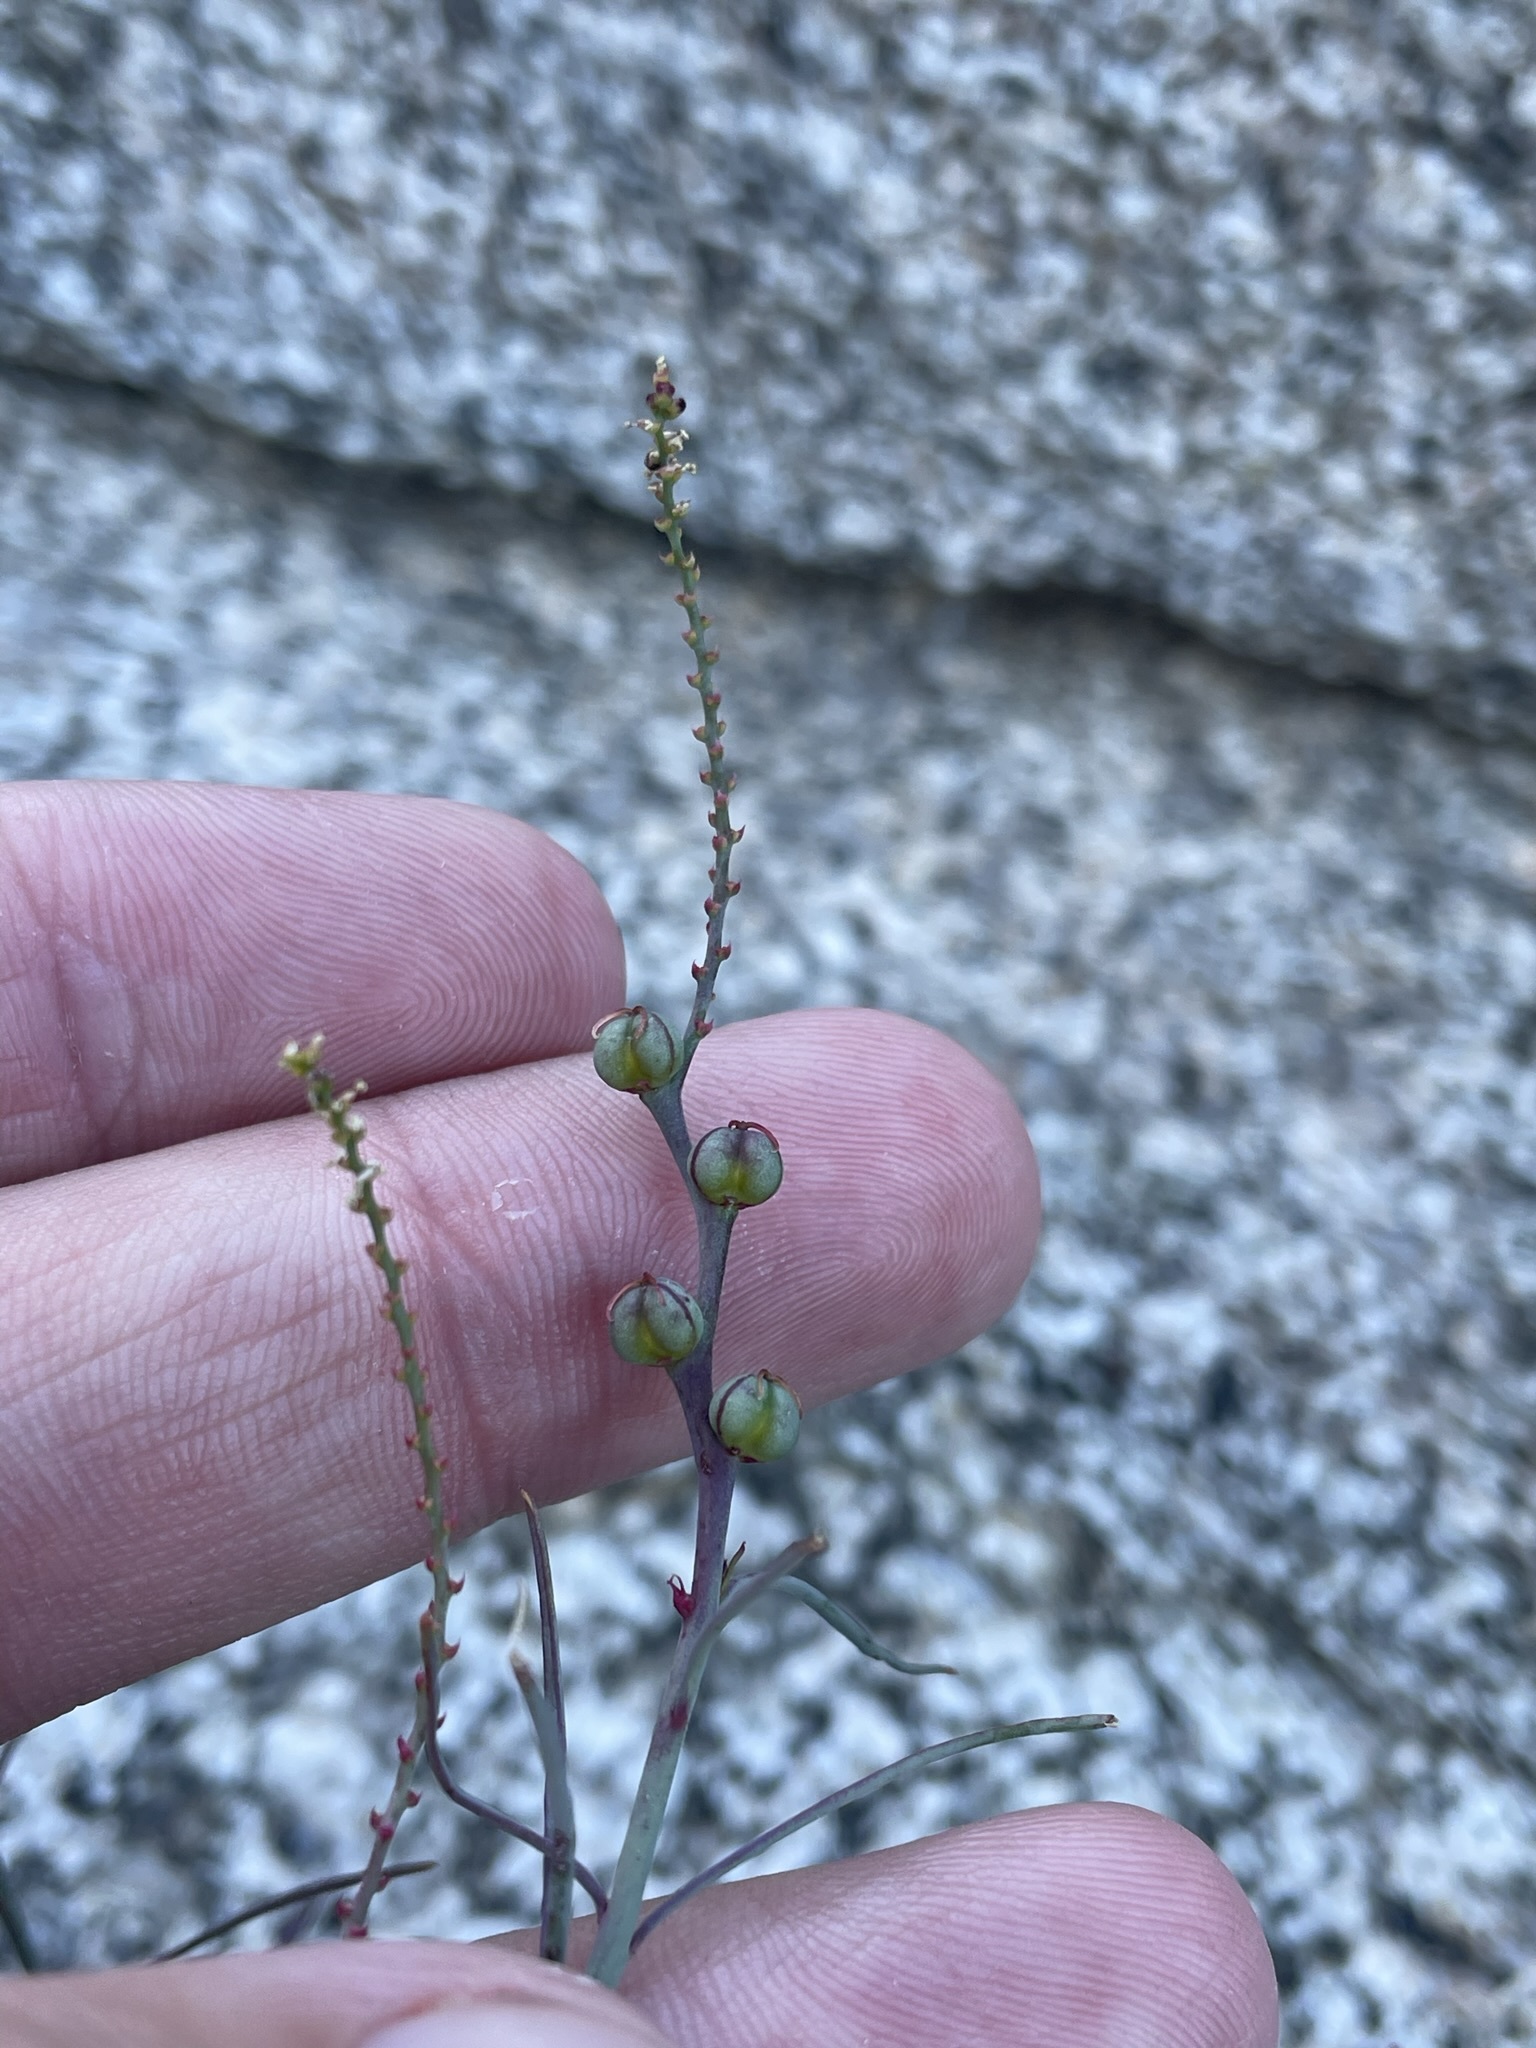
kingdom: Plantae
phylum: Tracheophyta
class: Magnoliopsida
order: Malpighiales
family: Euphorbiaceae
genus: Stillingia
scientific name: Stillingia linearifolia
